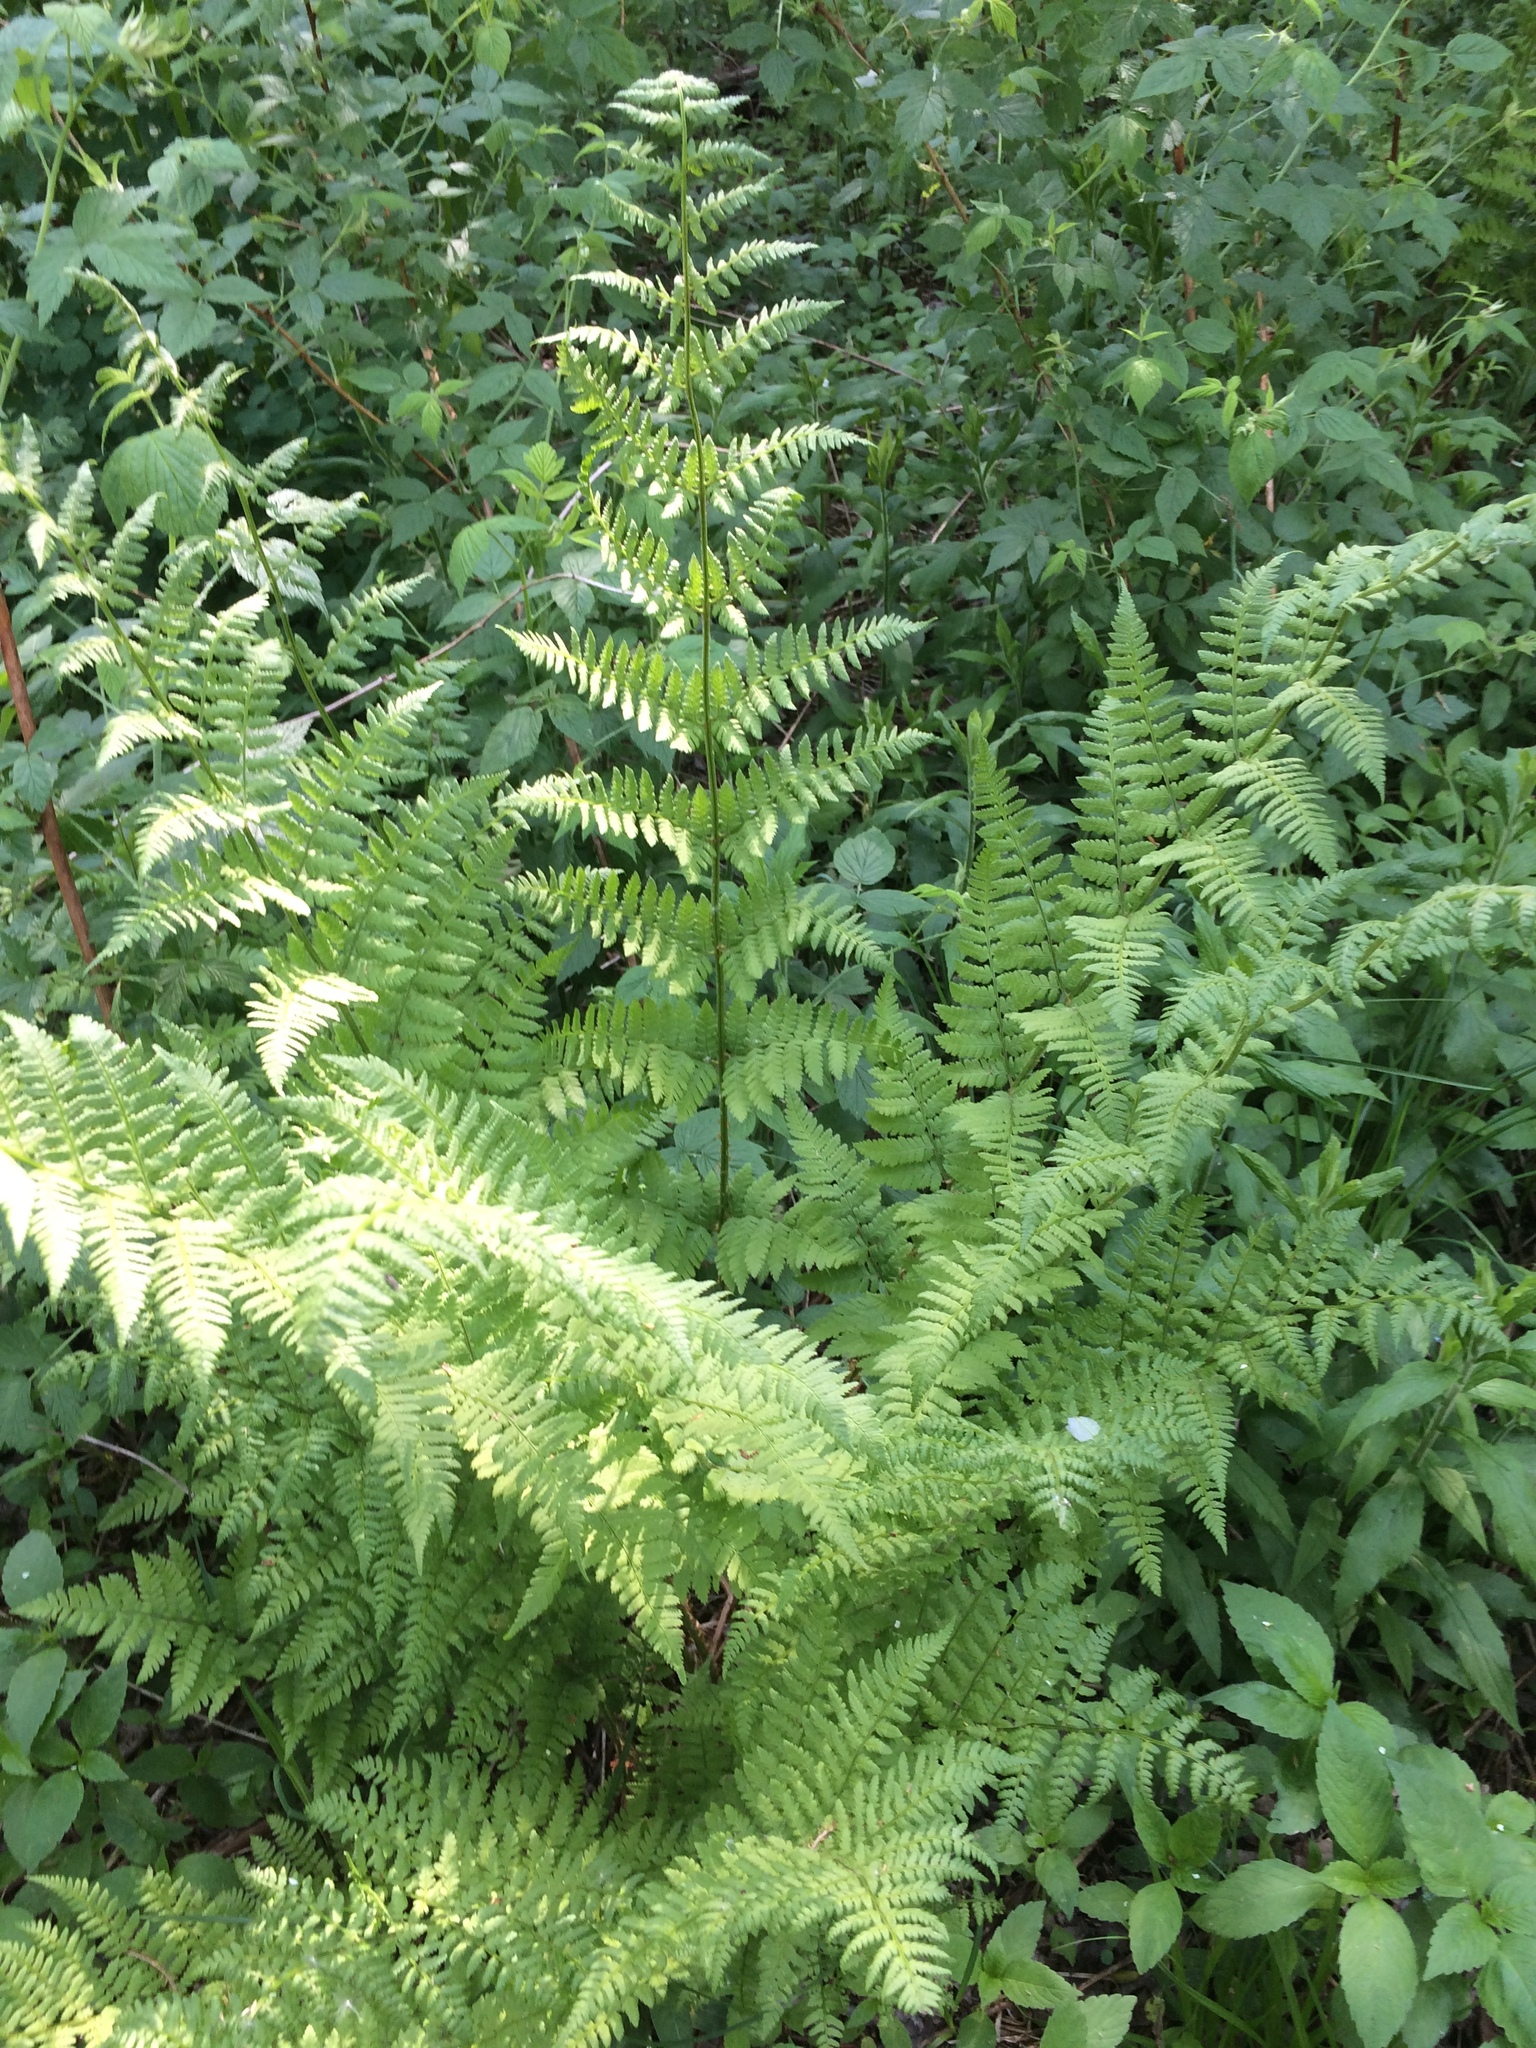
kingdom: Plantae
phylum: Tracheophyta
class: Polypodiopsida
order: Polypodiales
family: Dryopteridaceae
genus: Dryopteris
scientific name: Dryopteris intermedia
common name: Evergreen wood fern
